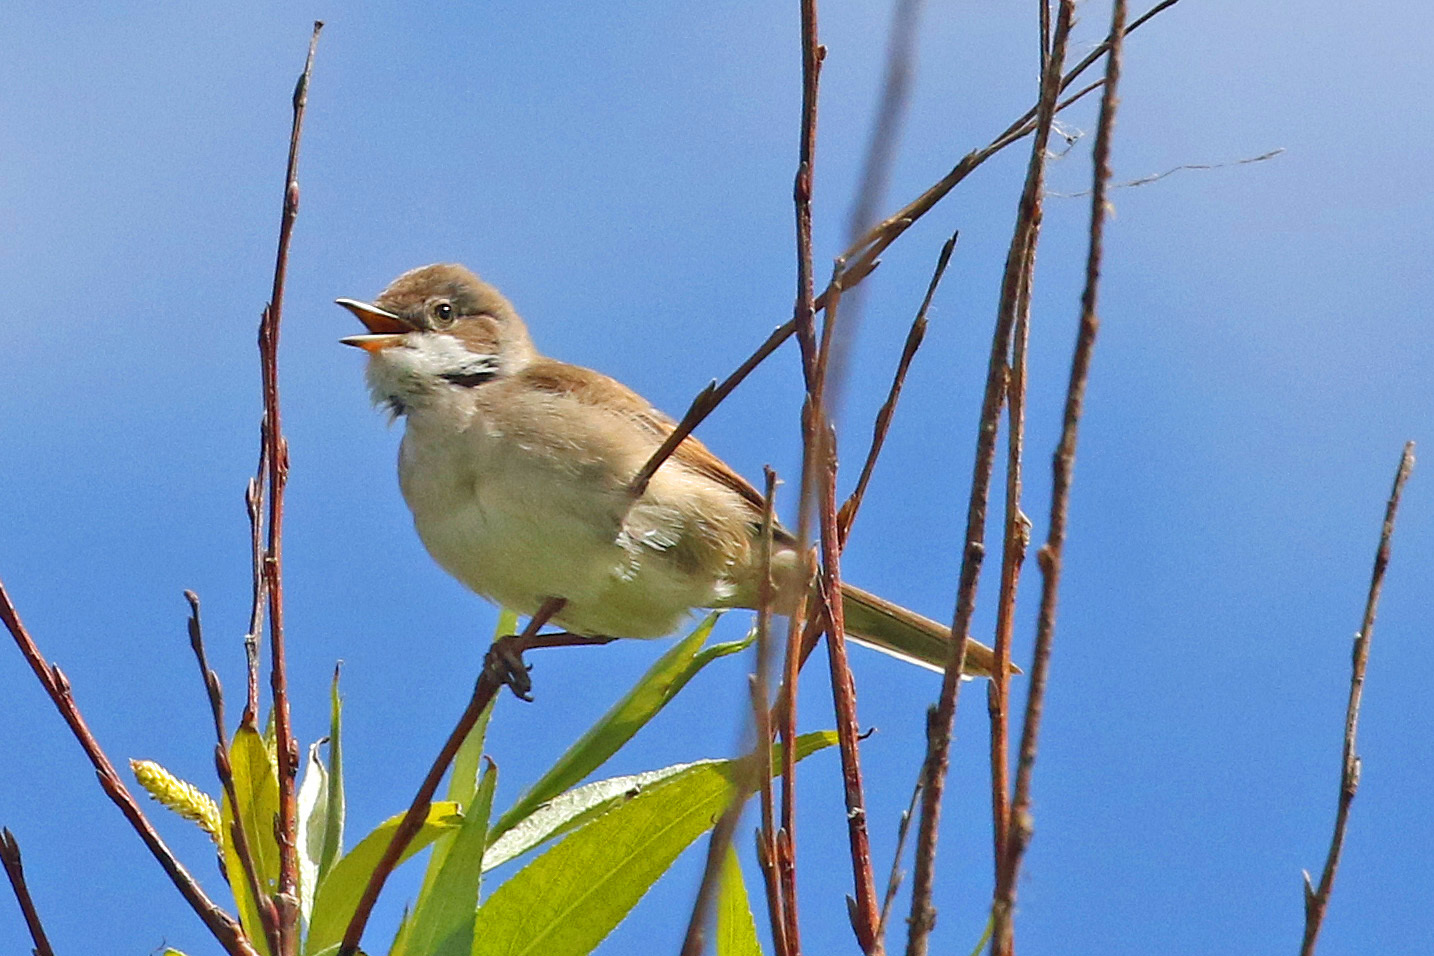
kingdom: Animalia
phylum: Chordata
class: Aves
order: Passeriformes
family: Sylviidae
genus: Sylvia
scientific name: Sylvia communis
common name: Common whitethroat
